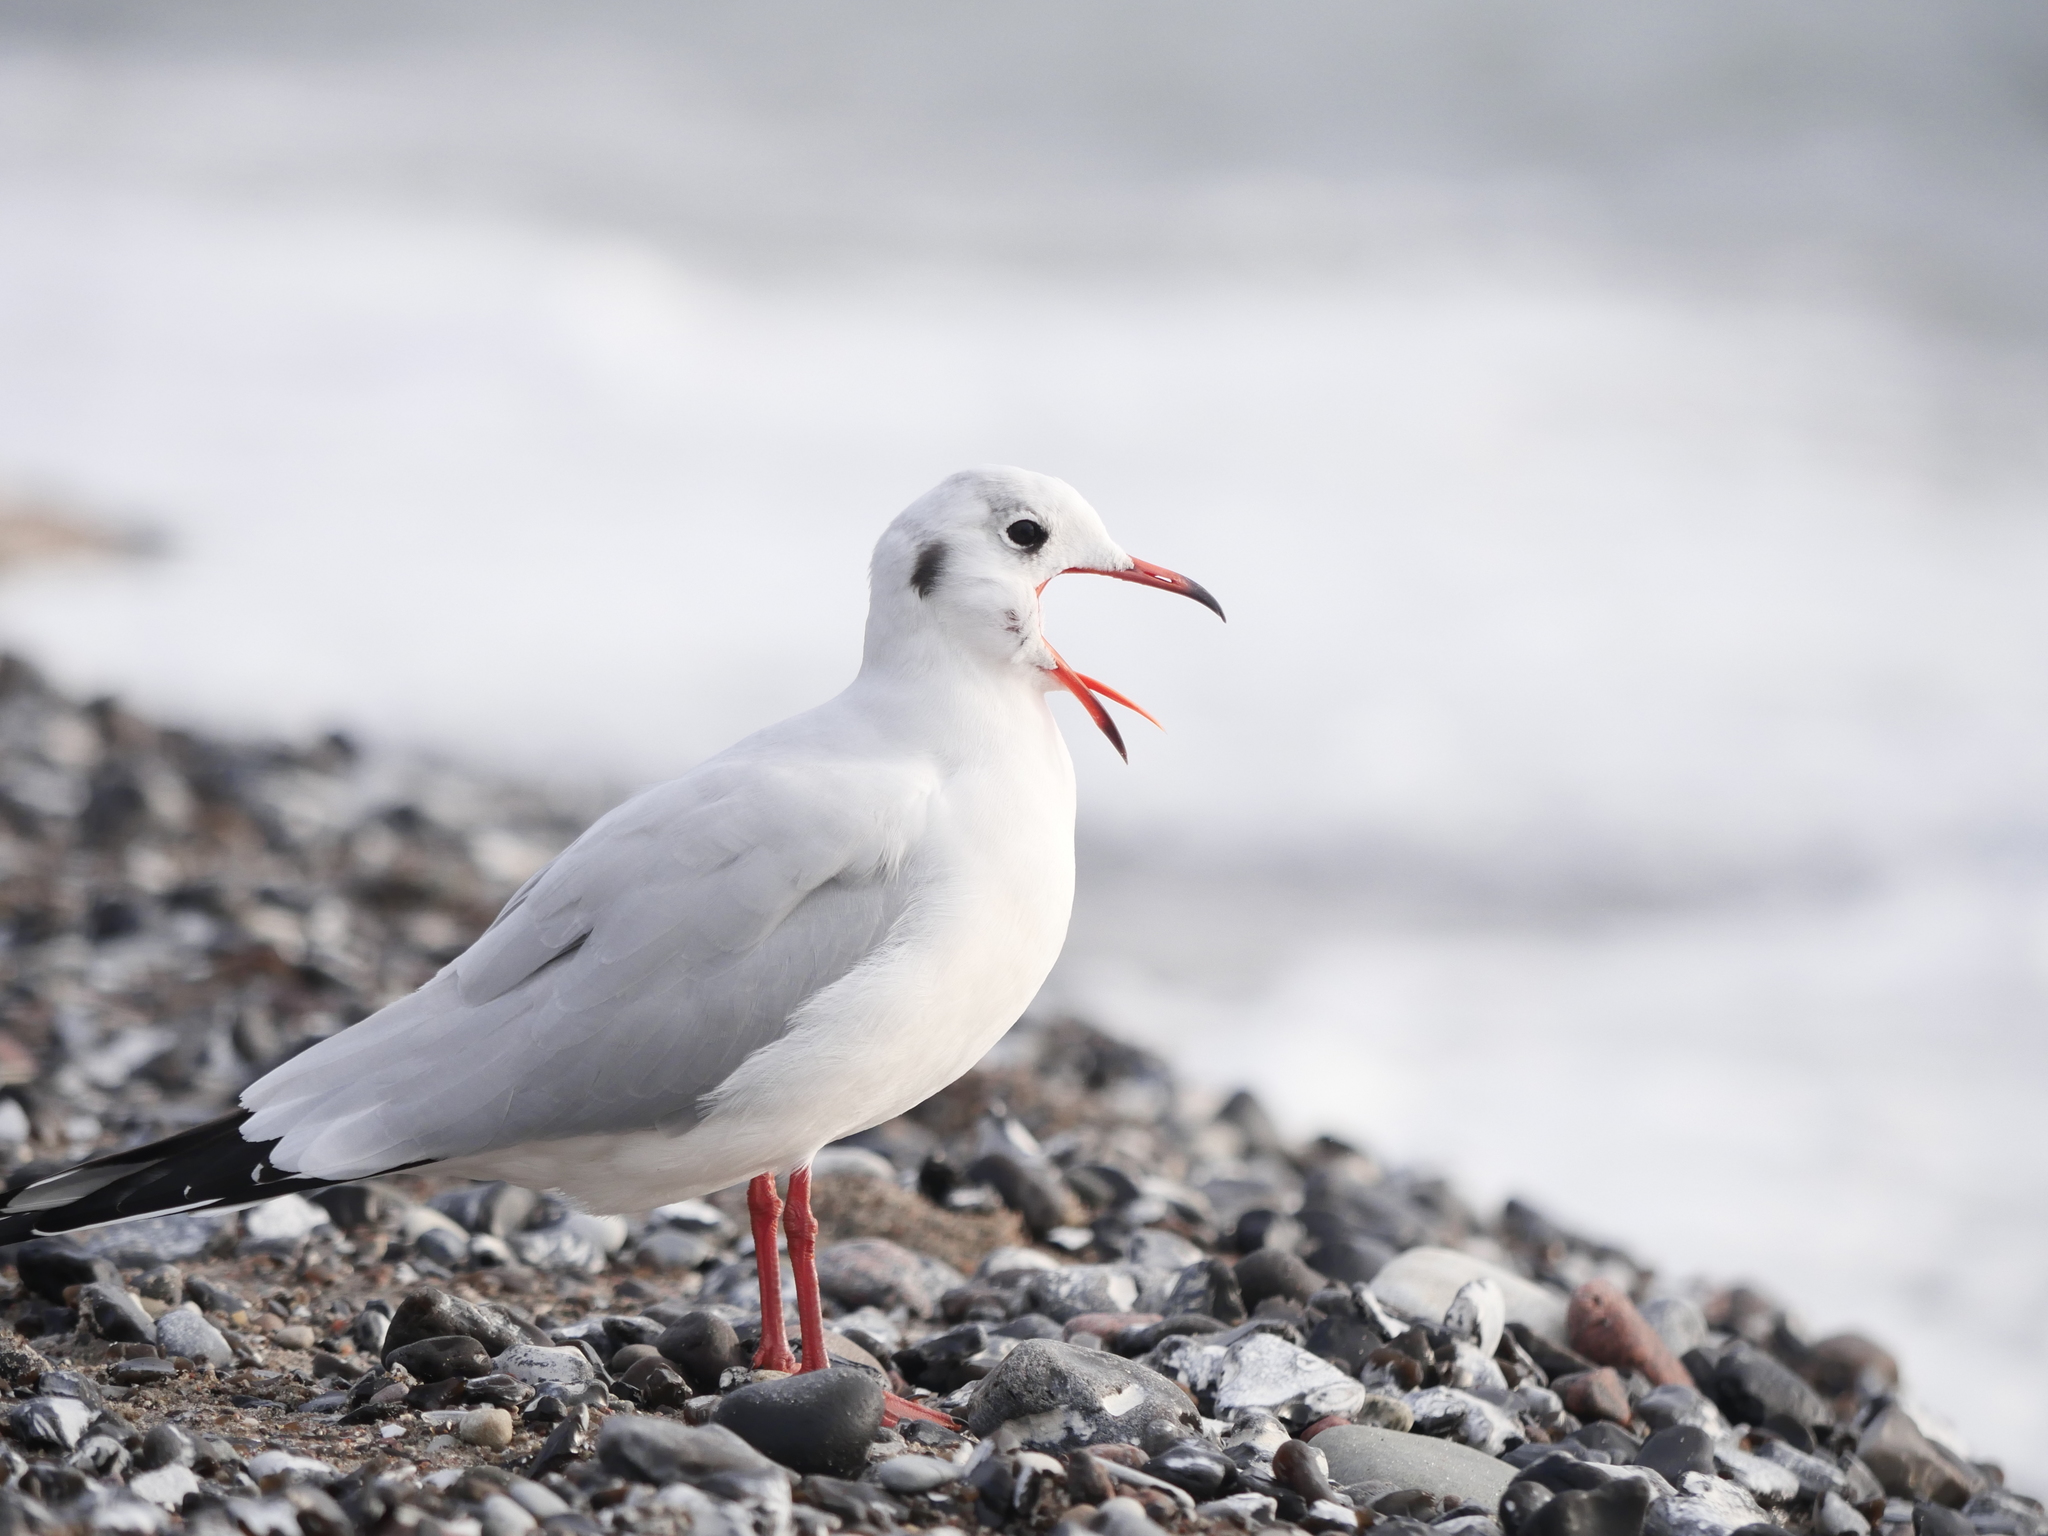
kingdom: Animalia
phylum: Chordata
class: Aves
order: Charadriiformes
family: Laridae
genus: Chroicocephalus
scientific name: Chroicocephalus ridibundus
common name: Black-headed gull
